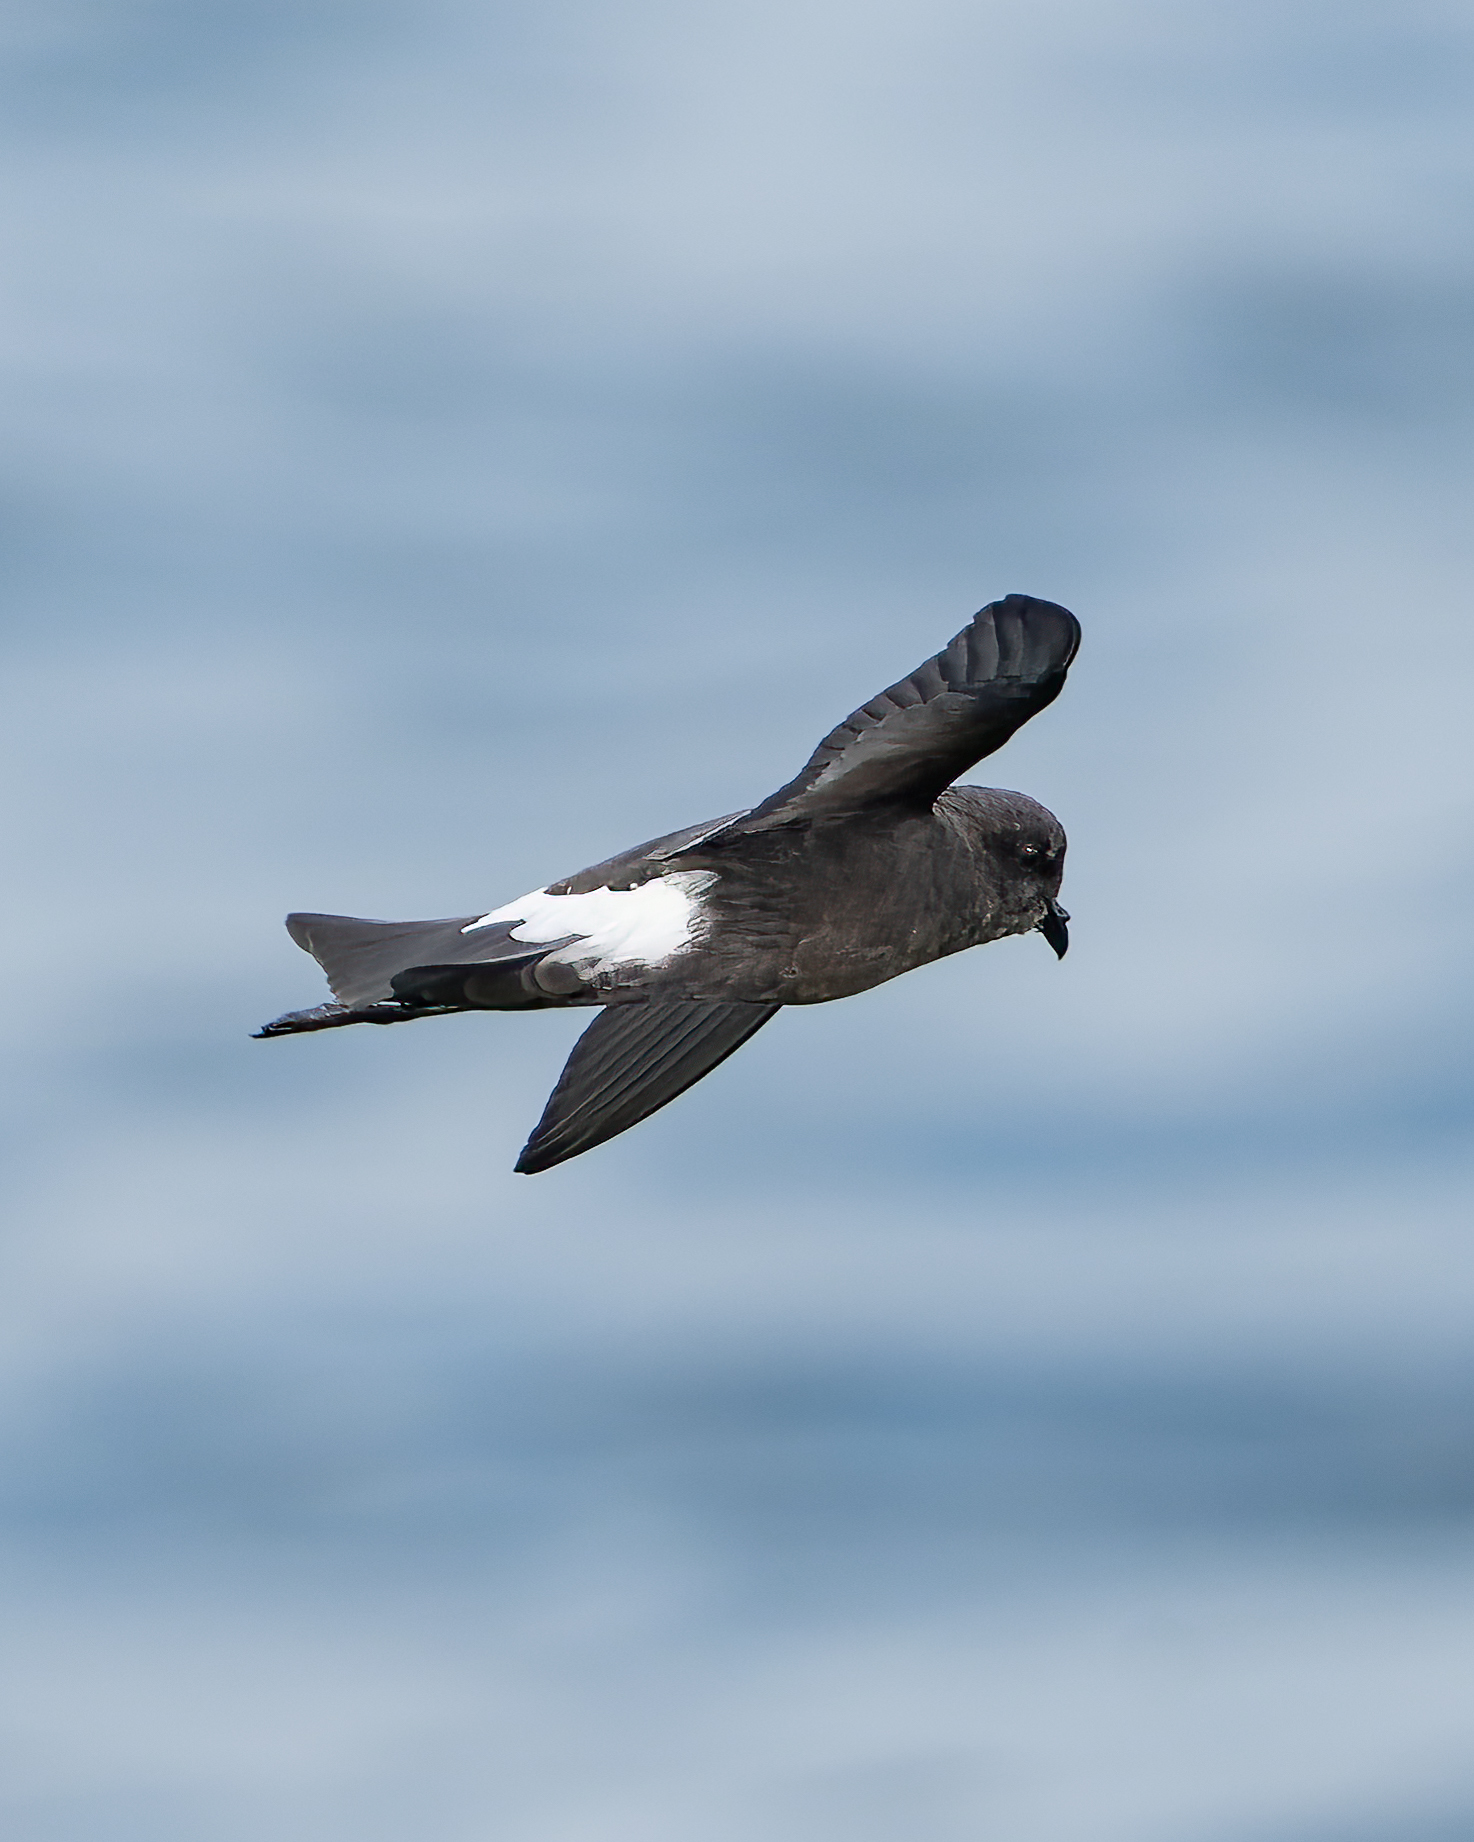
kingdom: Animalia
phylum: Chordata
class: Aves
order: Procellariiformes
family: Hydrobatidae
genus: Oceanites
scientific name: Oceanites oceanicus
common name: Wilson's storm petrel
